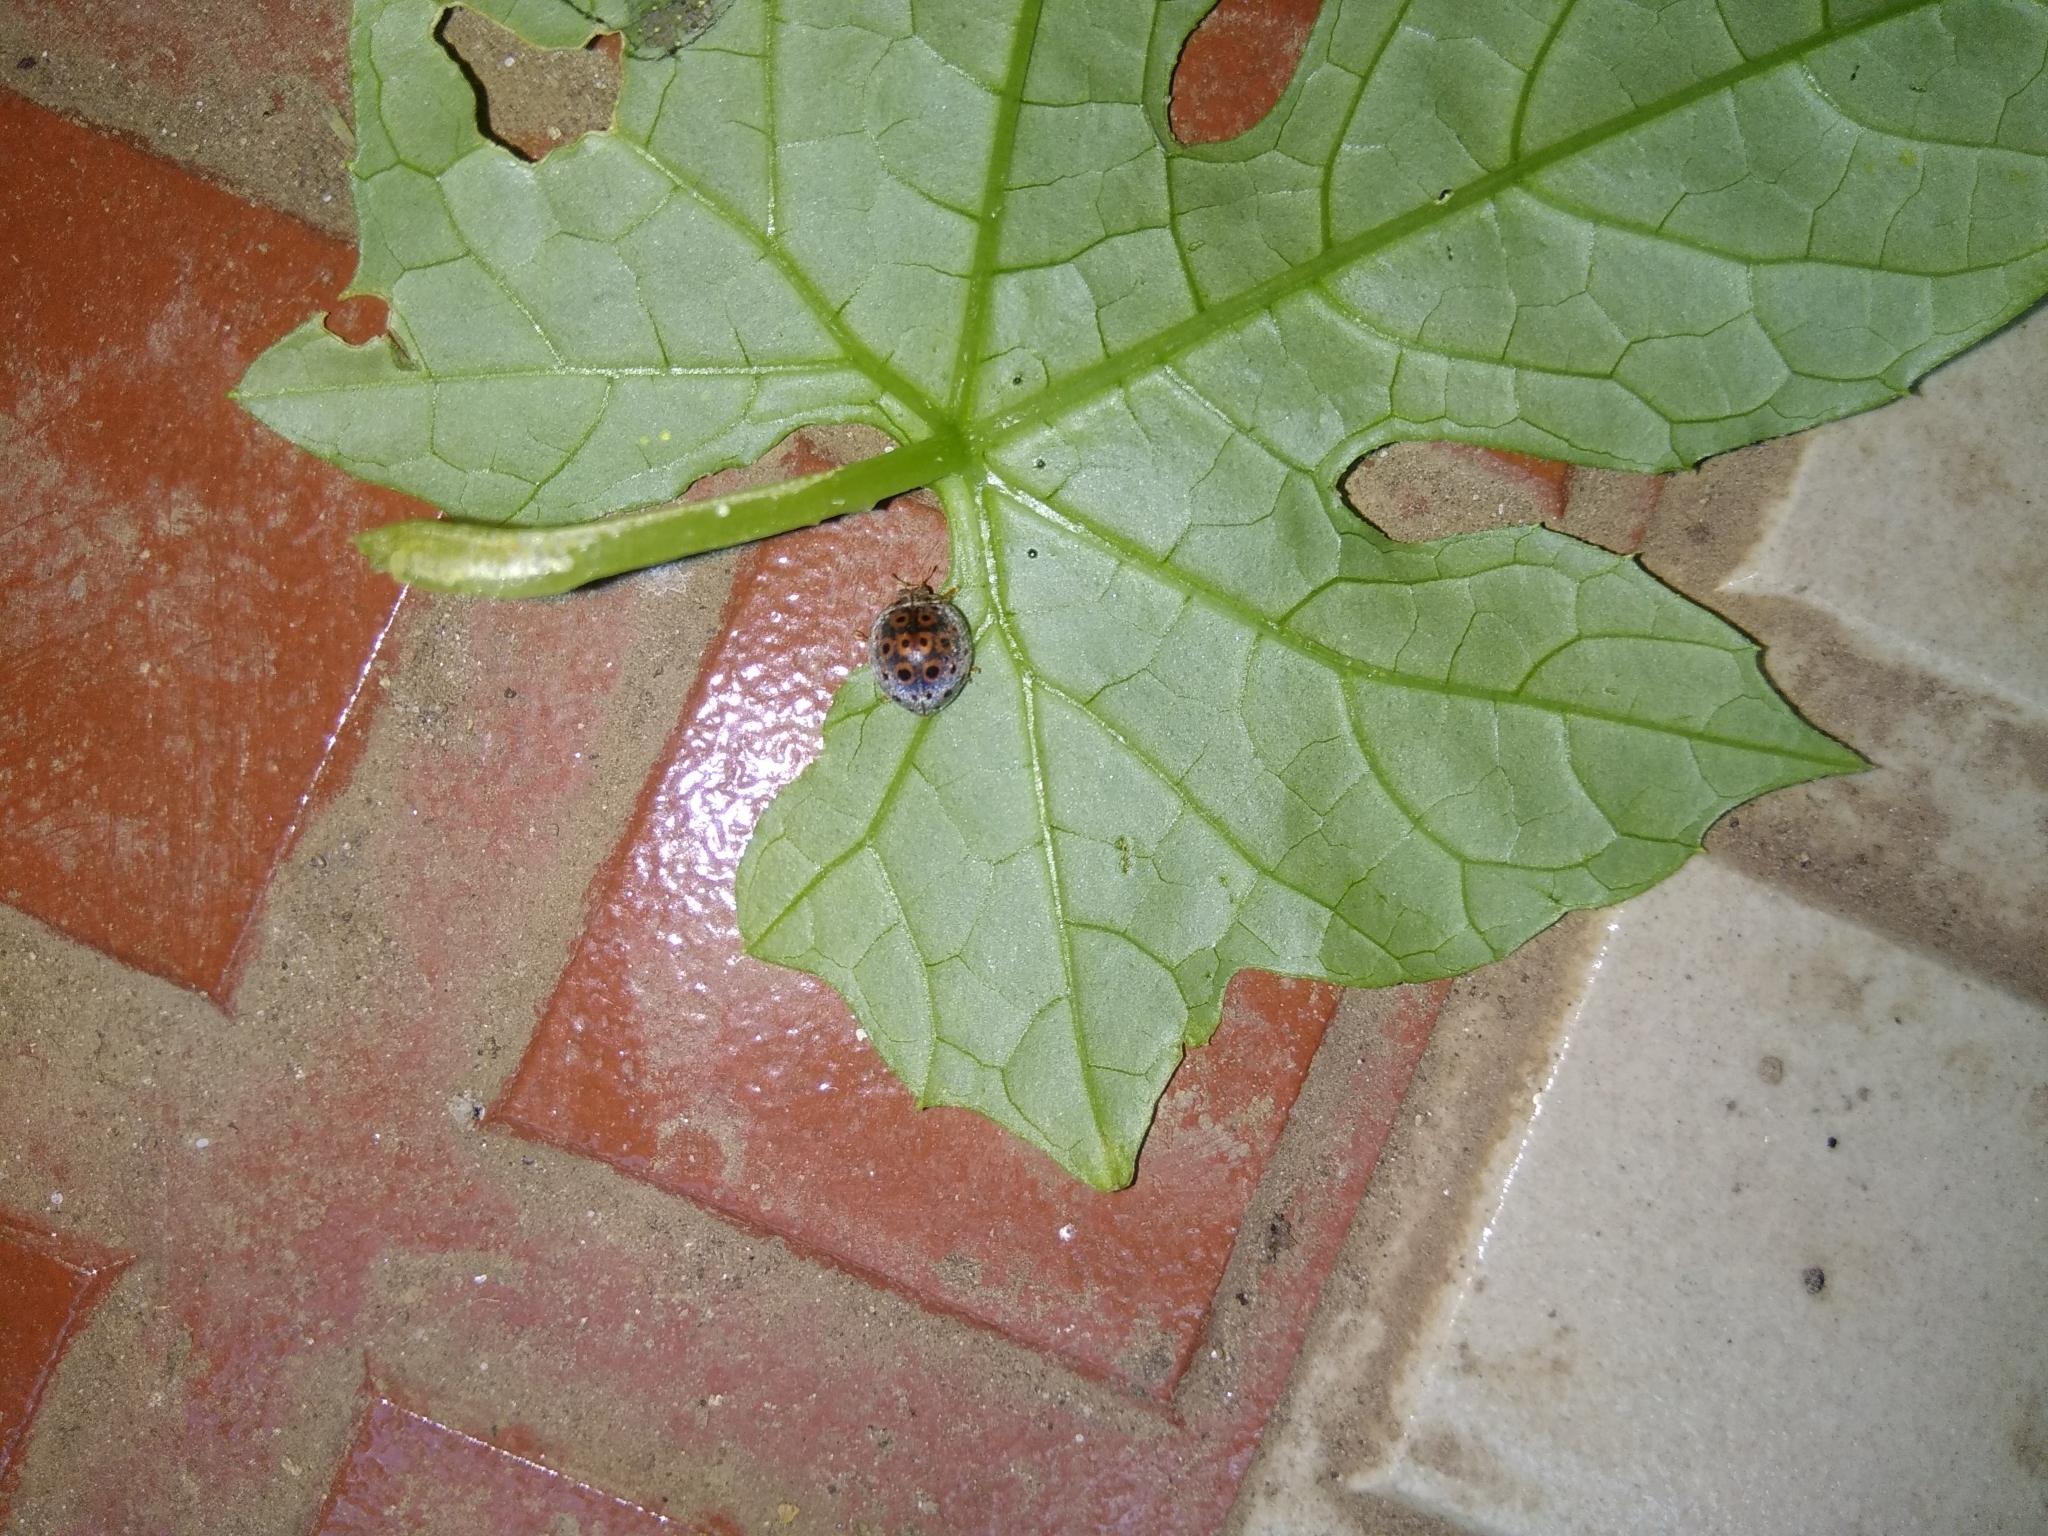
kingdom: Animalia
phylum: Arthropoda
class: Insecta
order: Coleoptera
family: Coccinellidae
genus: Henosepilachna
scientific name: Henosepilachna implicata
